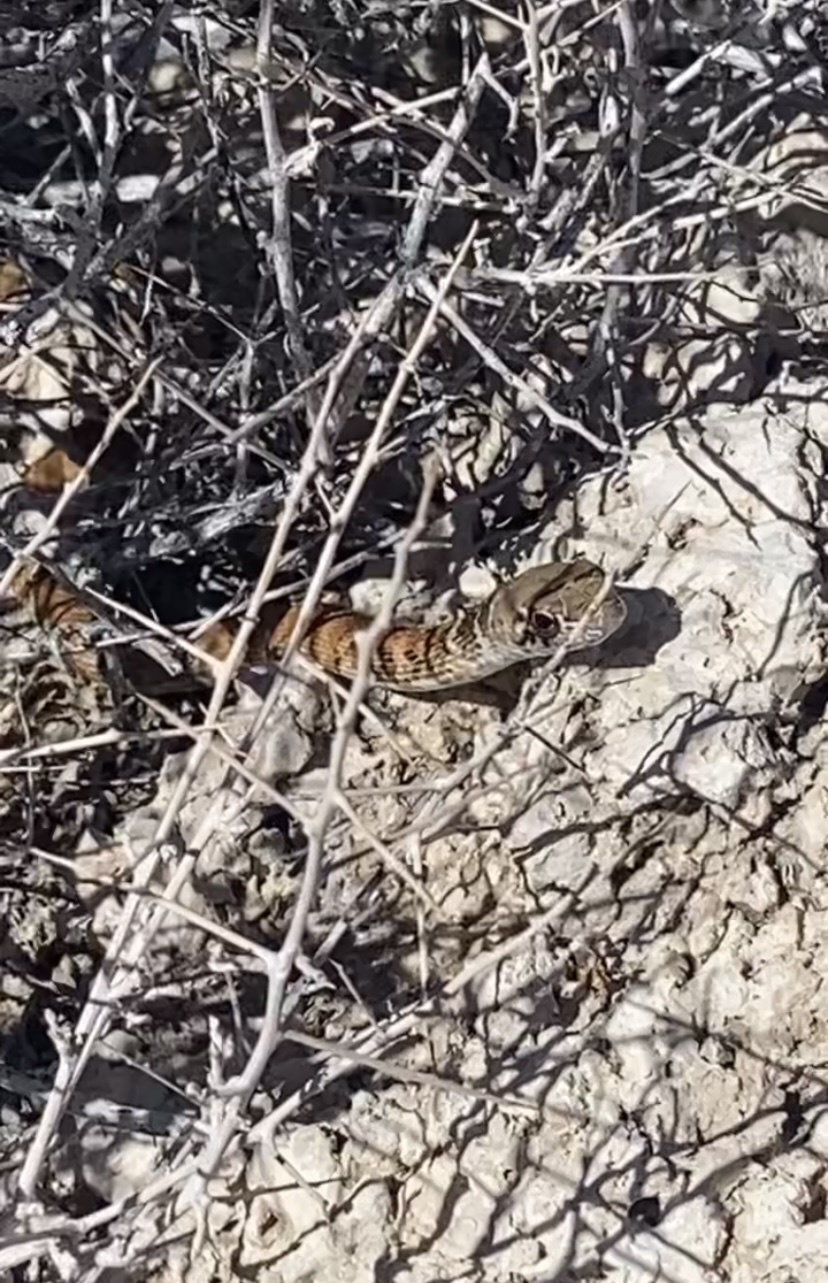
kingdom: Animalia
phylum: Chordata
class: Squamata
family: Colubridae
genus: Masticophis
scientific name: Masticophis flagellum
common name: Coachwhip
